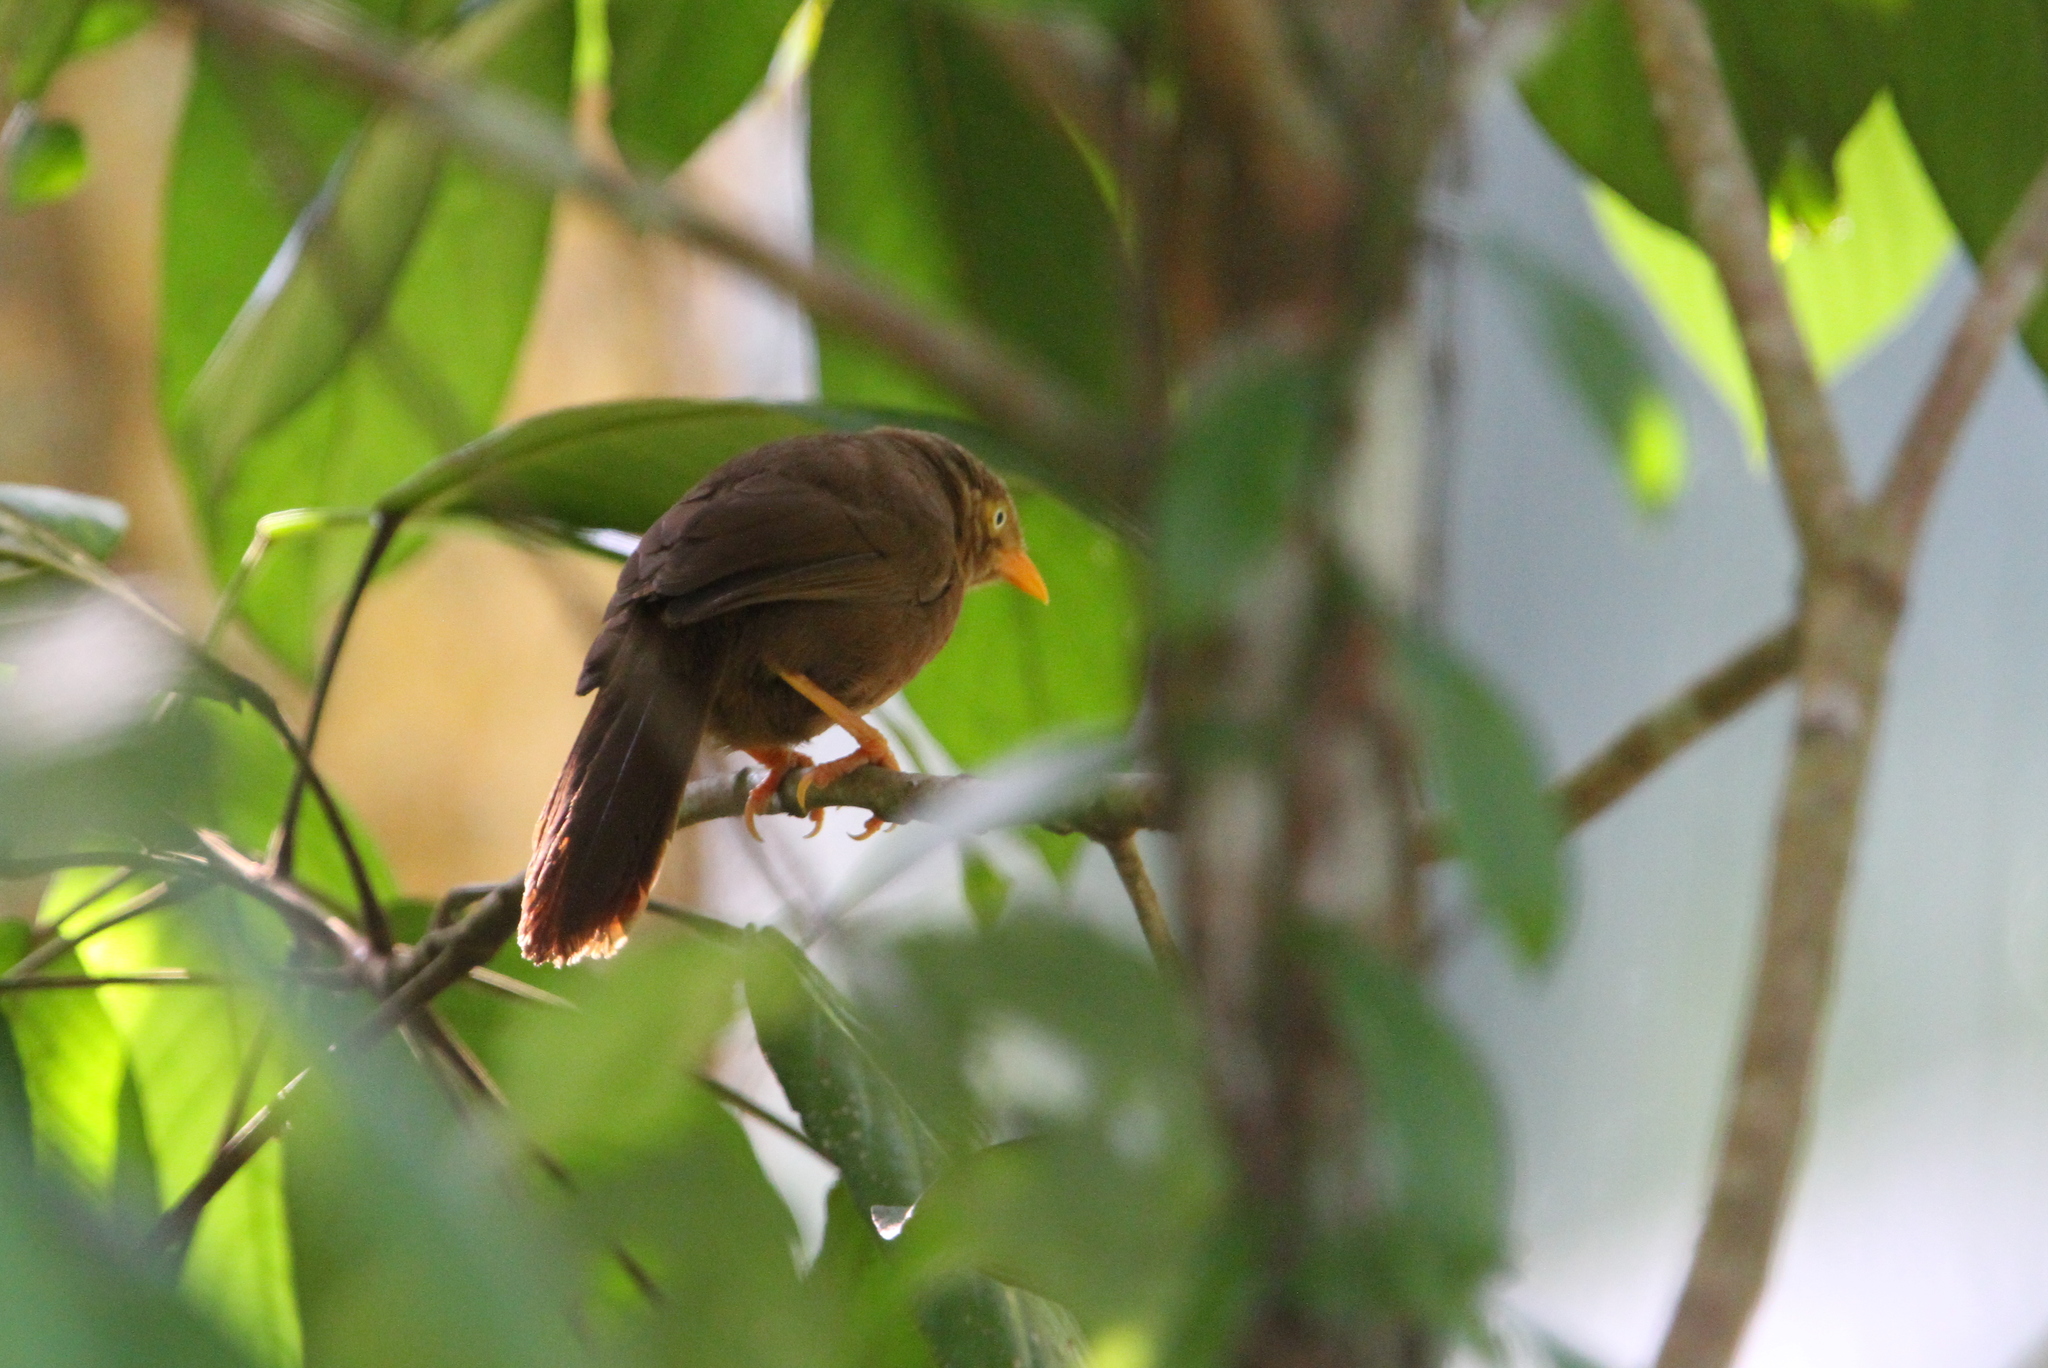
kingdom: Animalia
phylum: Chordata
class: Aves
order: Passeriformes
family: Leiothrichidae
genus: Turdoides
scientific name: Turdoides rufescens
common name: Orange-billed babbler
